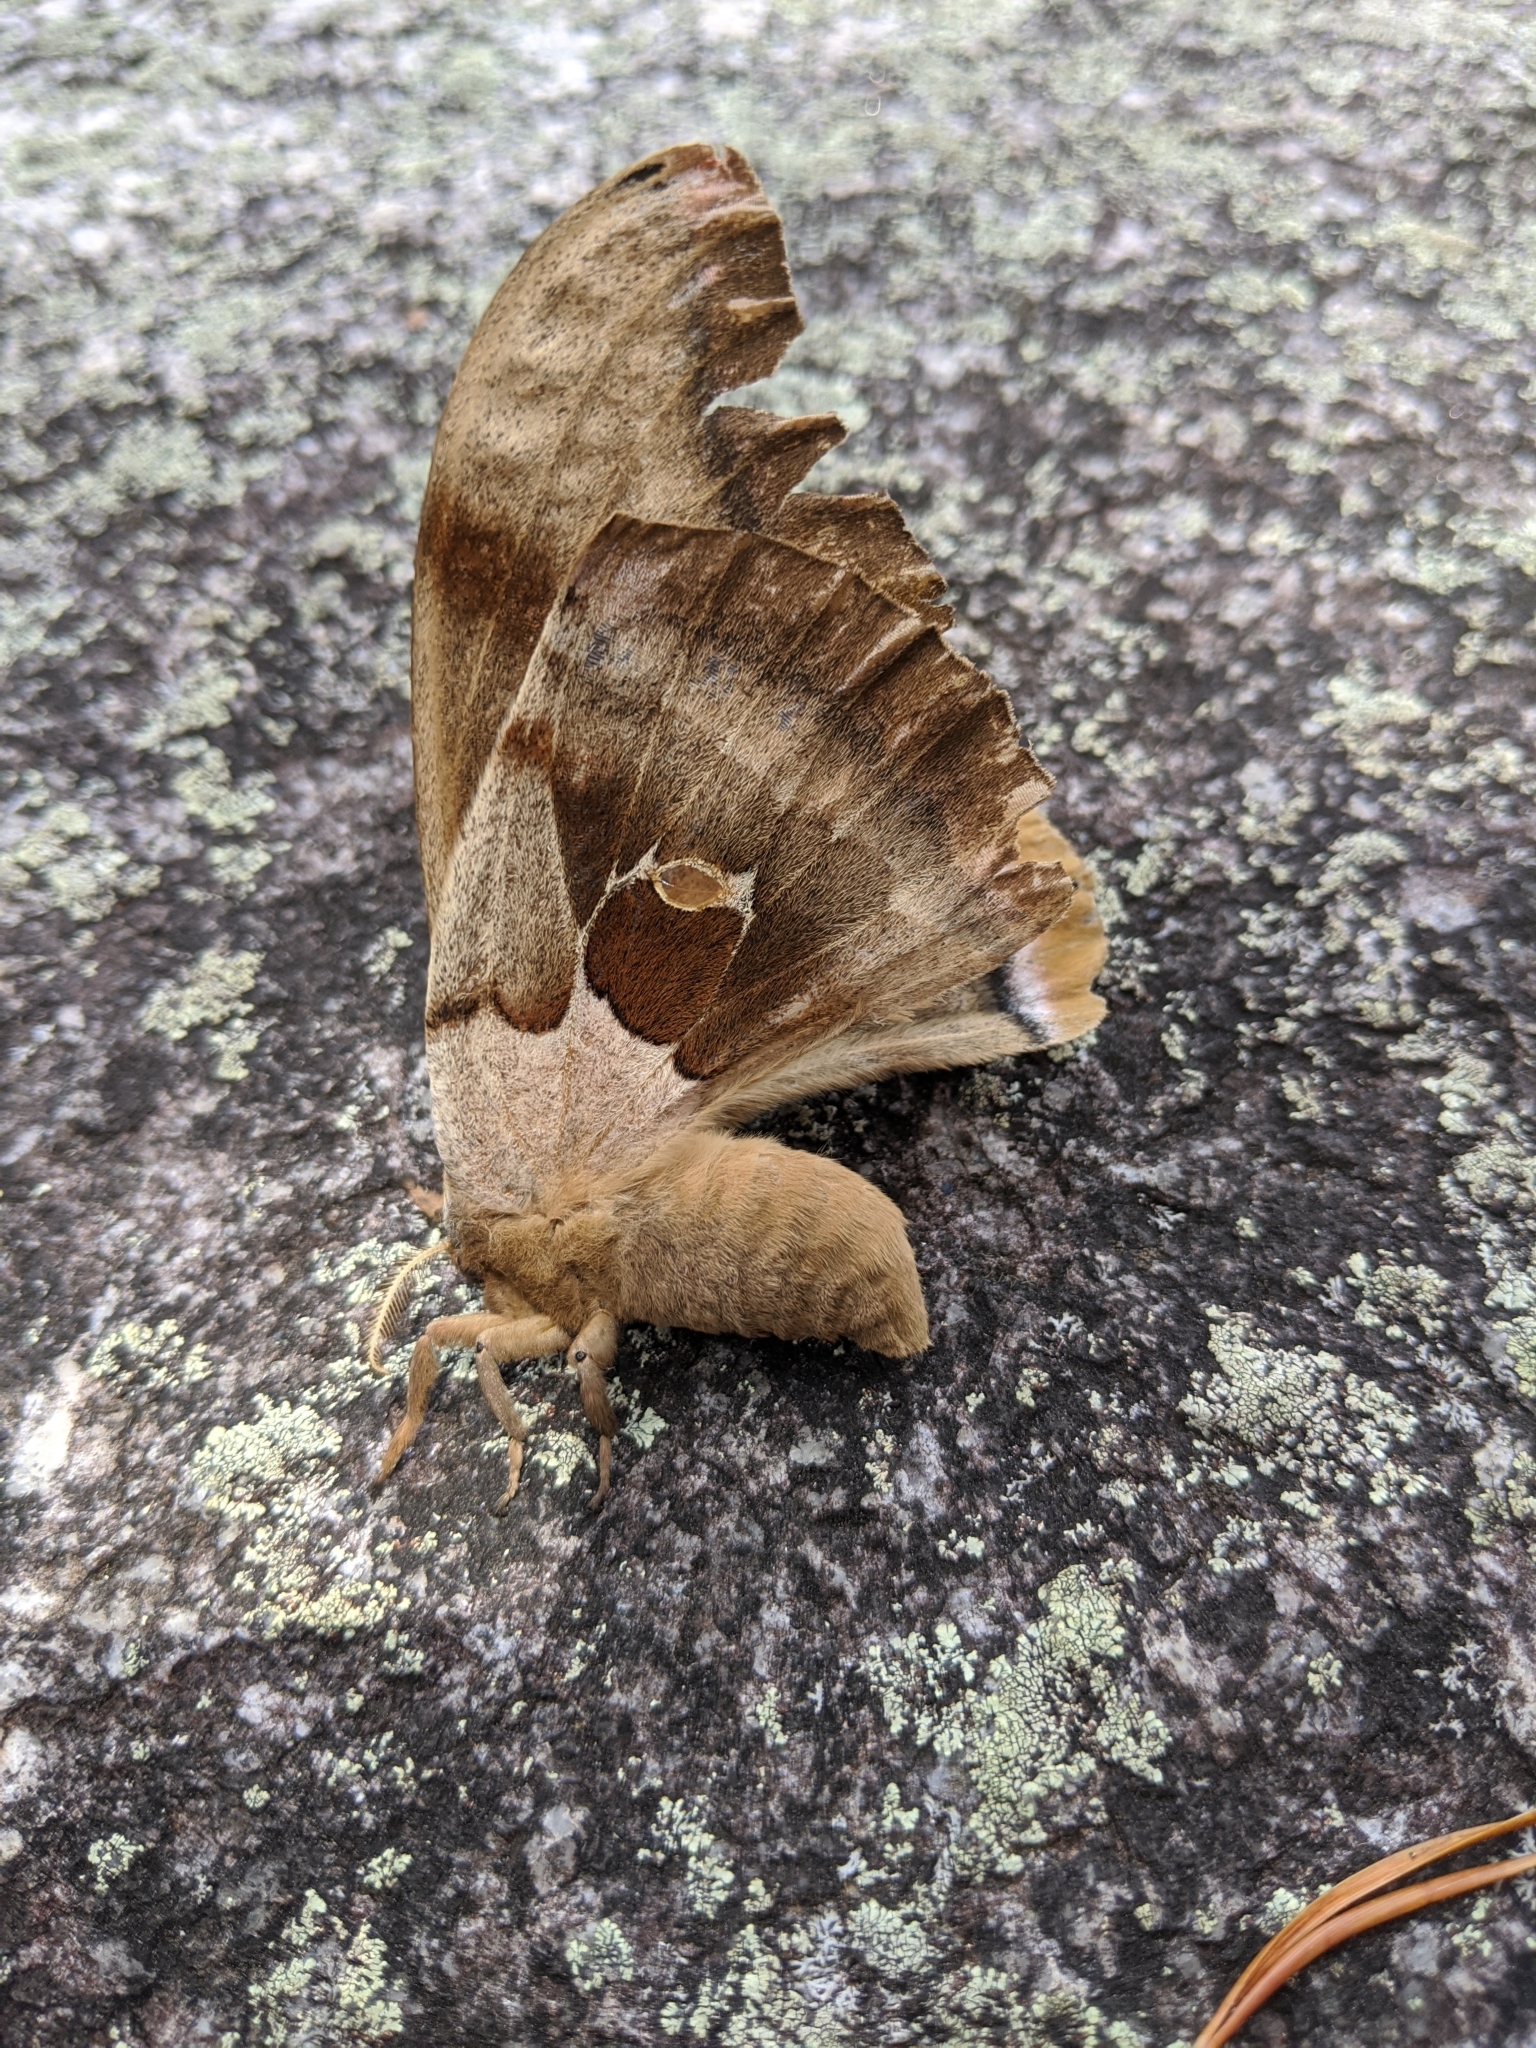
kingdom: Animalia
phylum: Arthropoda
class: Insecta
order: Lepidoptera
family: Saturniidae
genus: Antheraea
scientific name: Antheraea polyphemus
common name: Polyphemus moth
